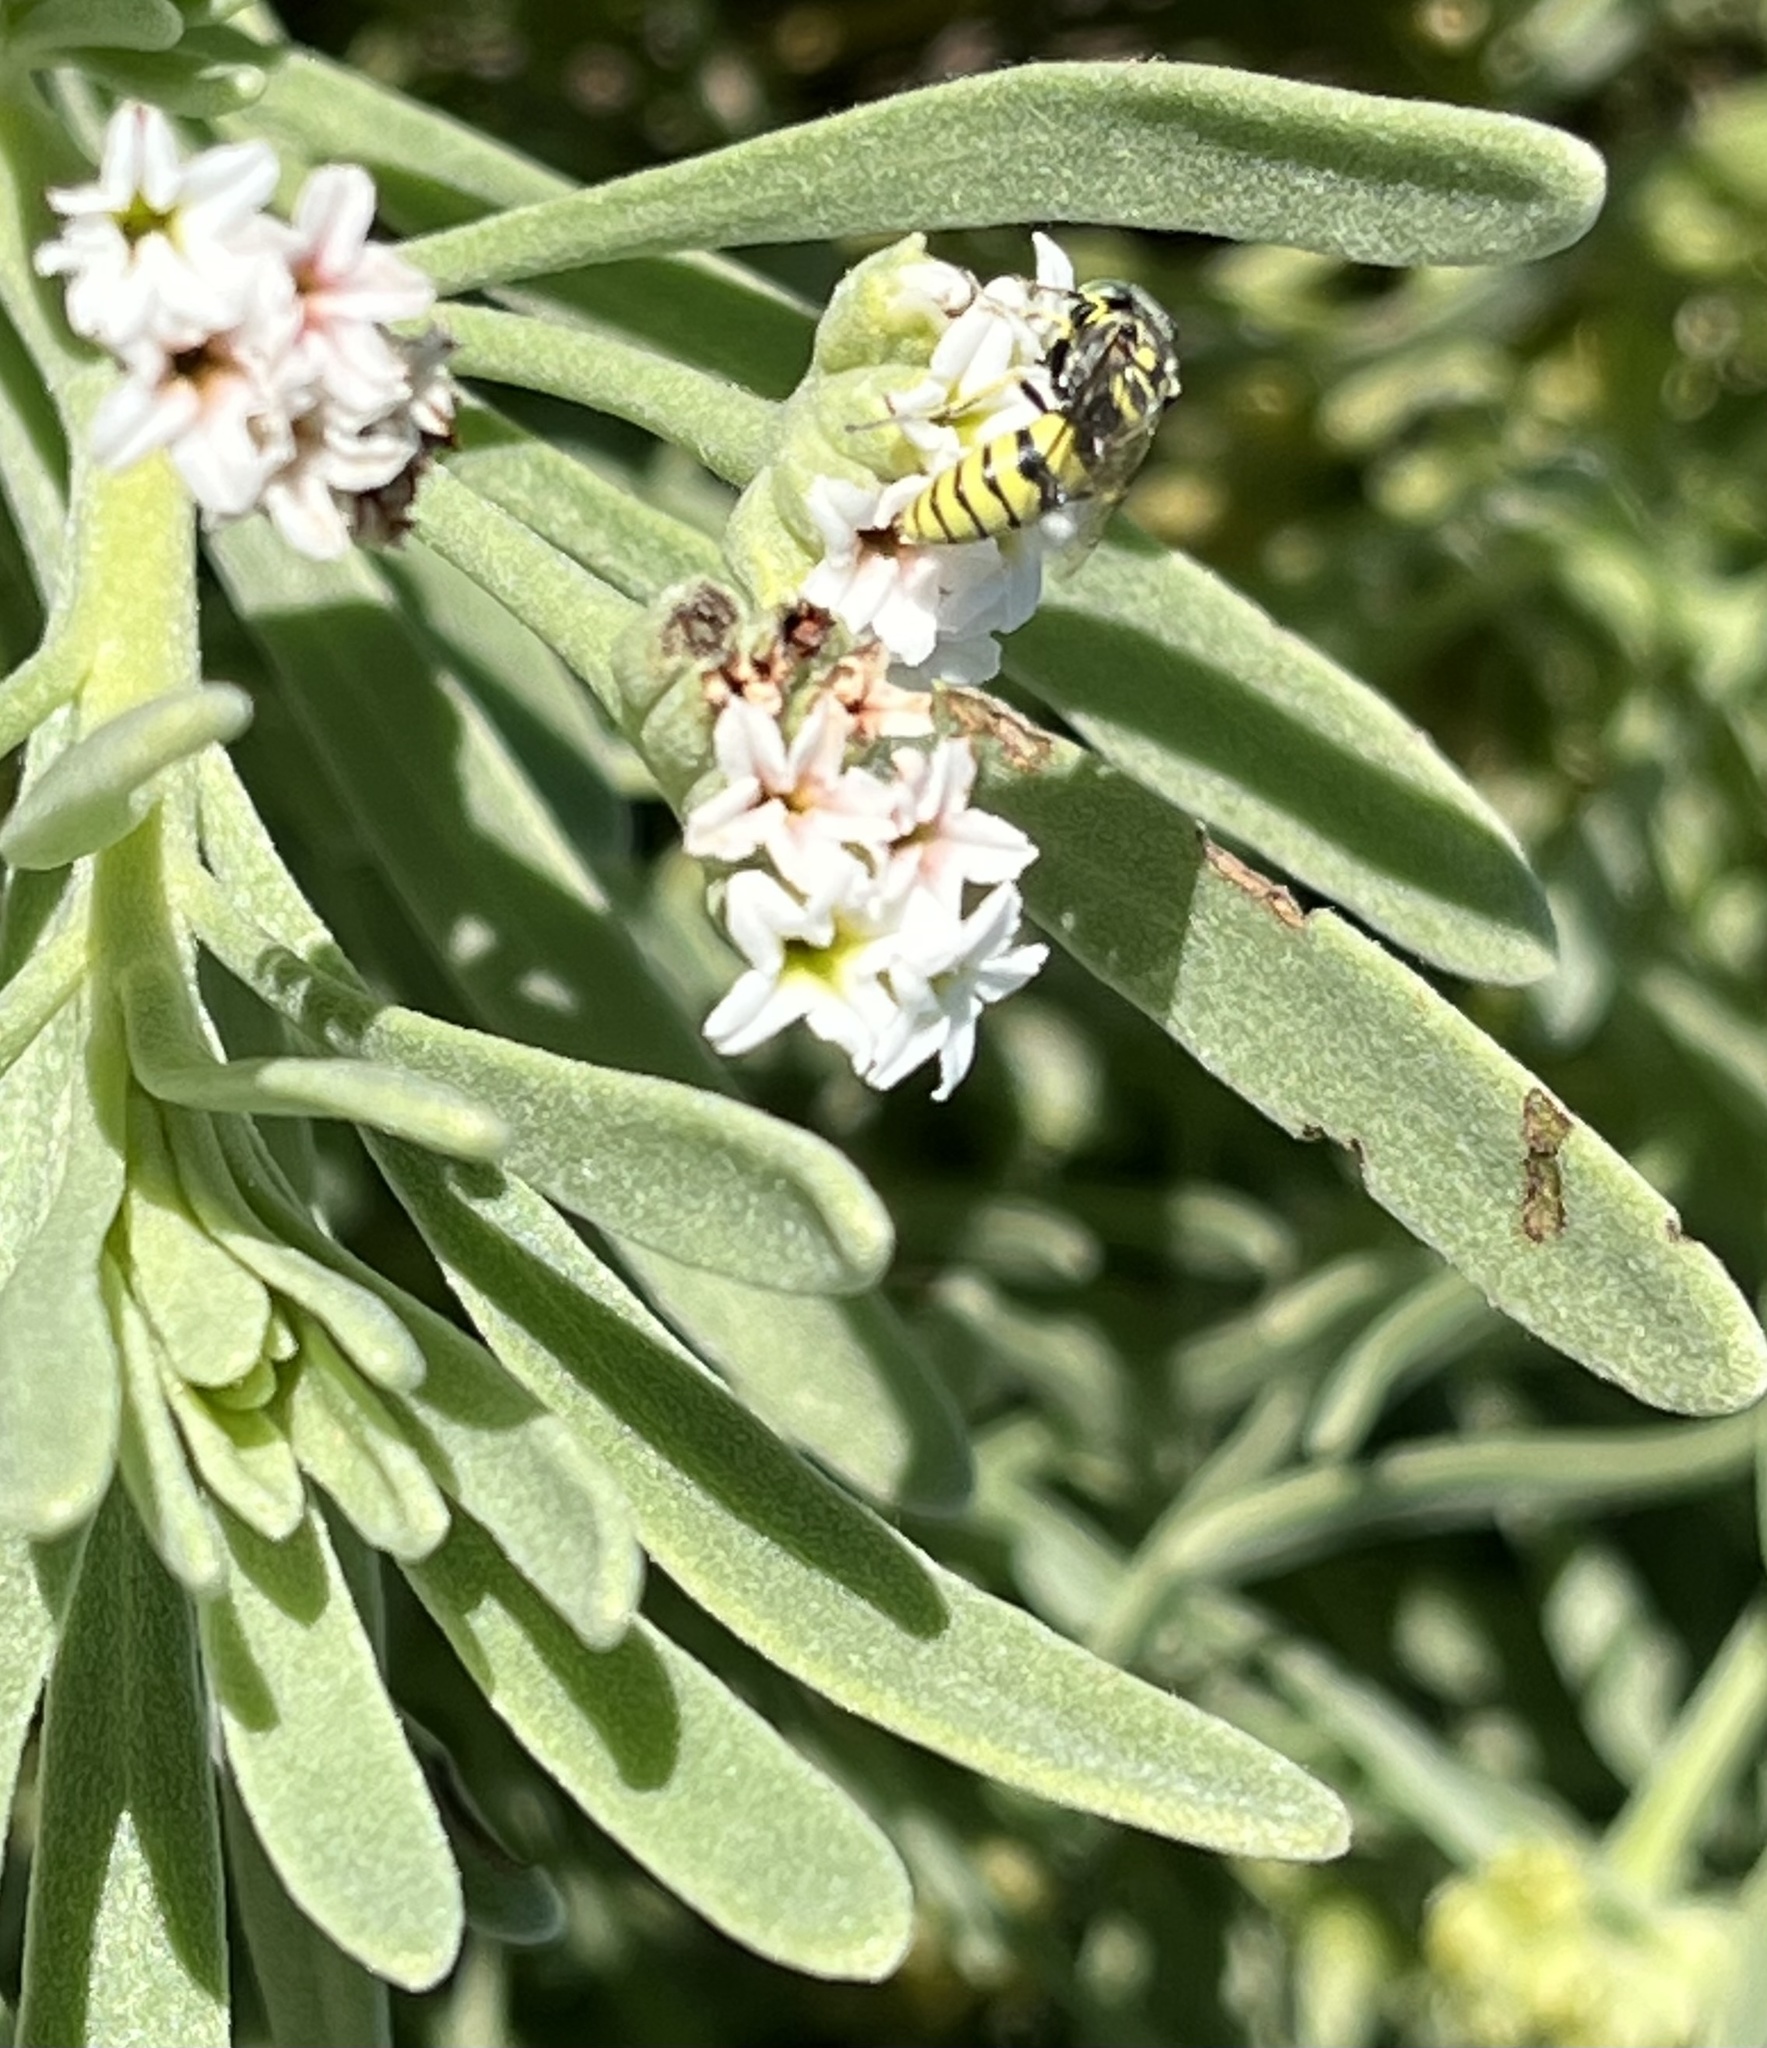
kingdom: Plantae
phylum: Tracheophyta
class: Magnoliopsida
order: Boraginales
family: Heliotropiaceae
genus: Tournefortia
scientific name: Tournefortia gnaphalodes
